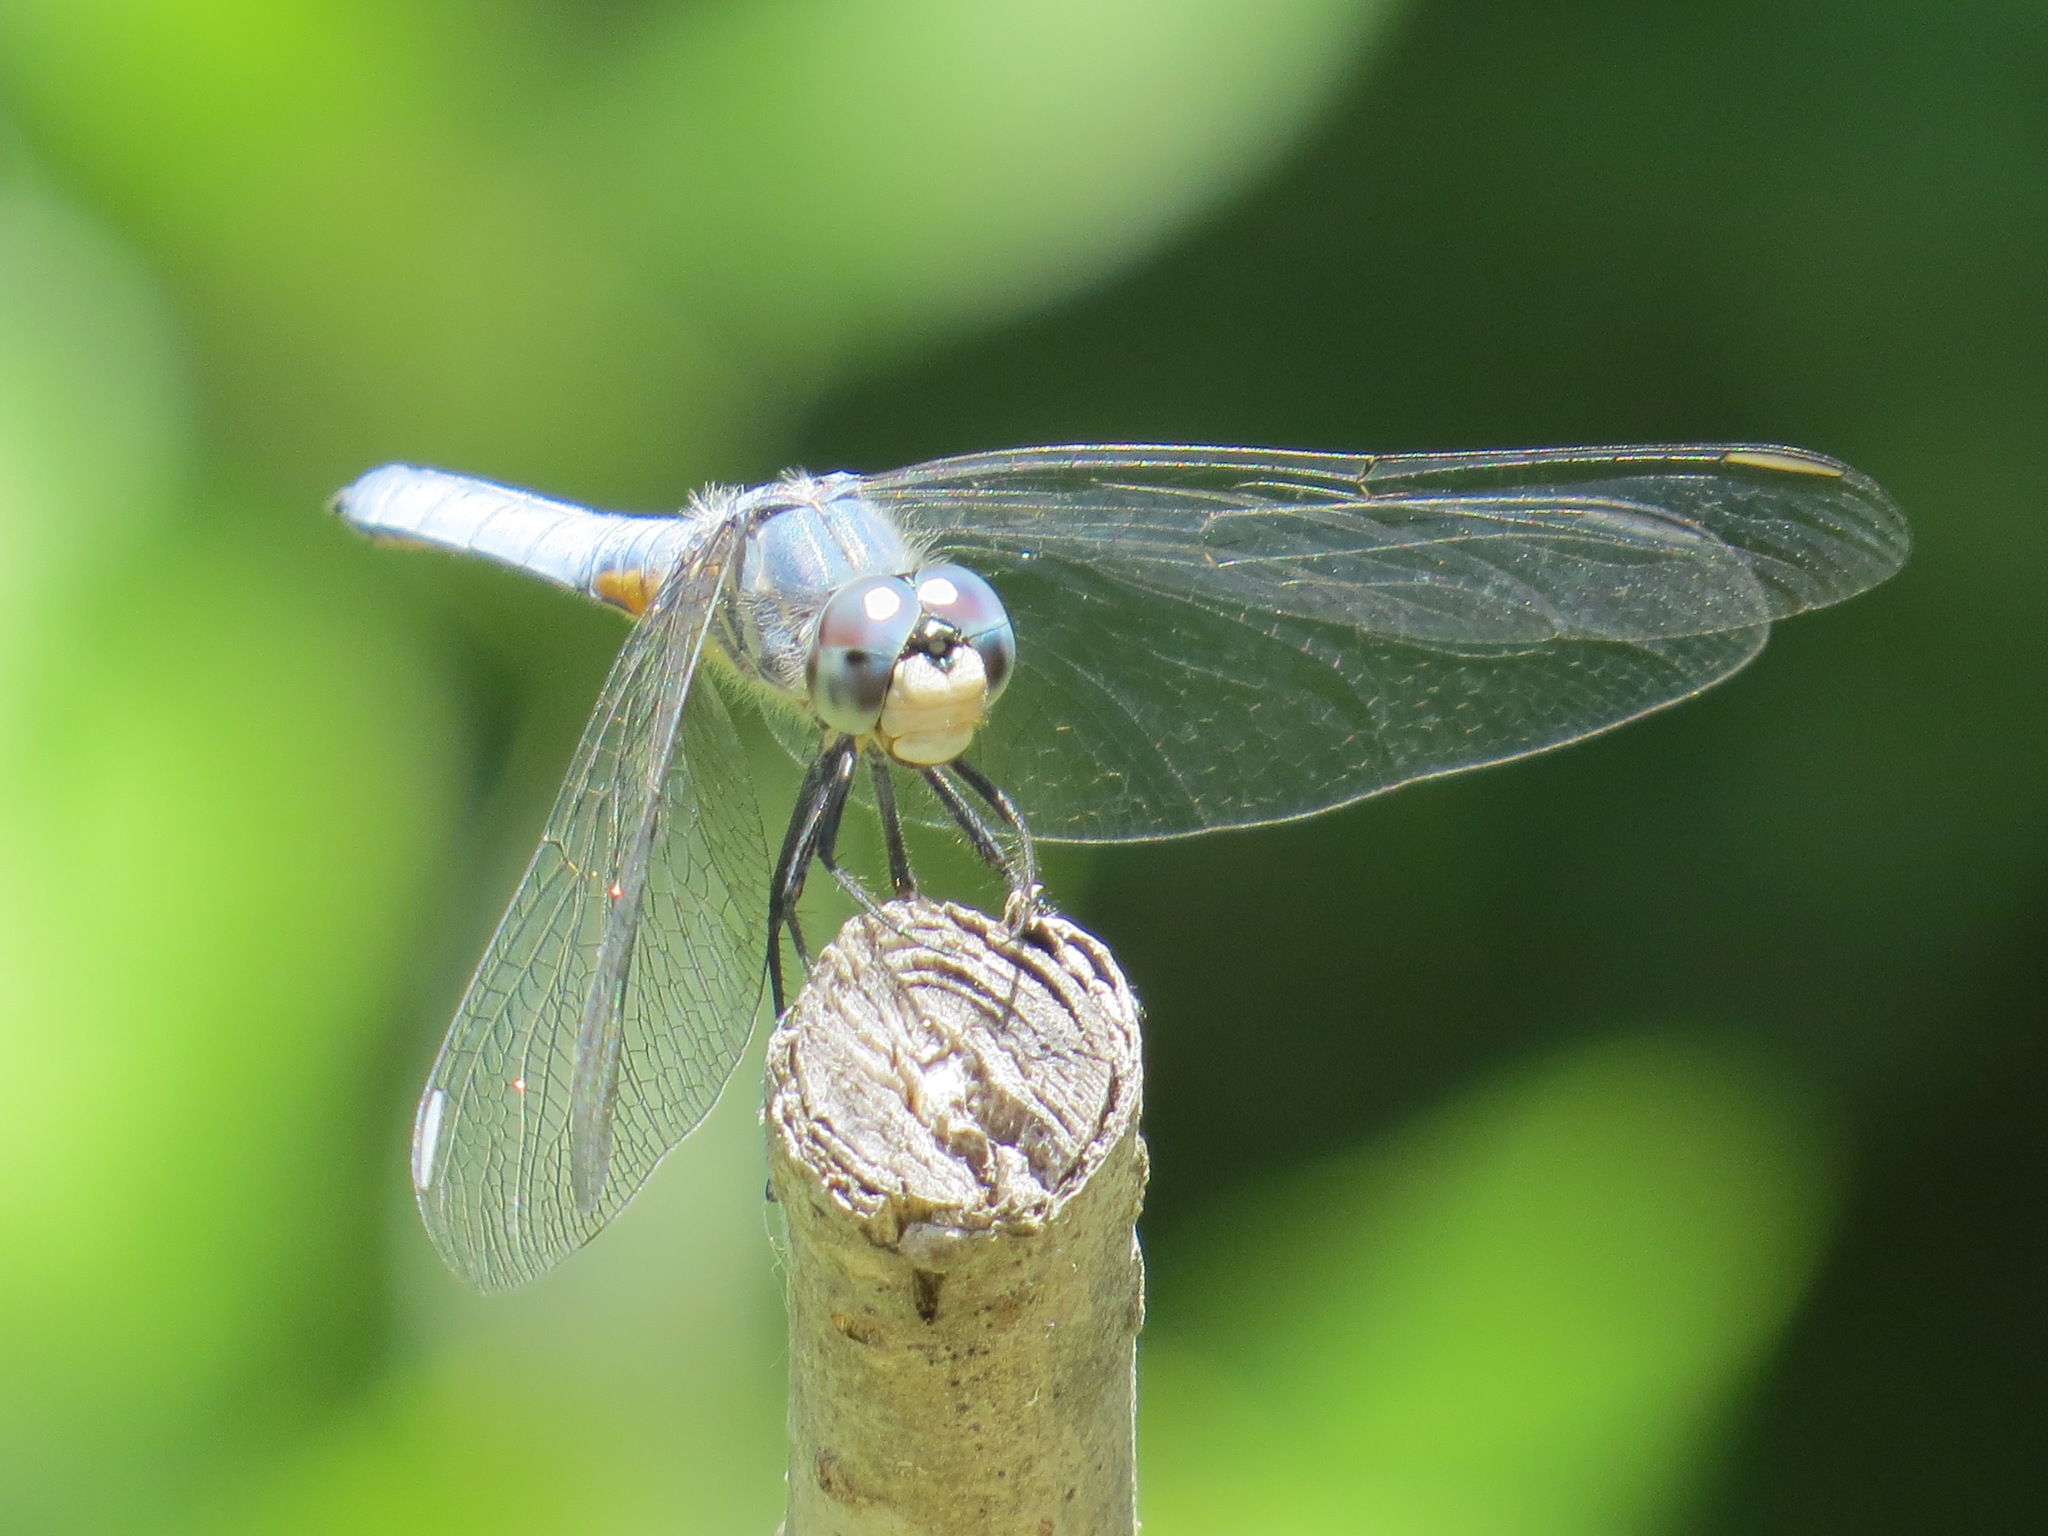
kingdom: Animalia
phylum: Arthropoda
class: Insecta
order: Odonata
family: Libellulidae
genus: Pachydiplax
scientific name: Pachydiplax longipennis
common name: Blue dasher
